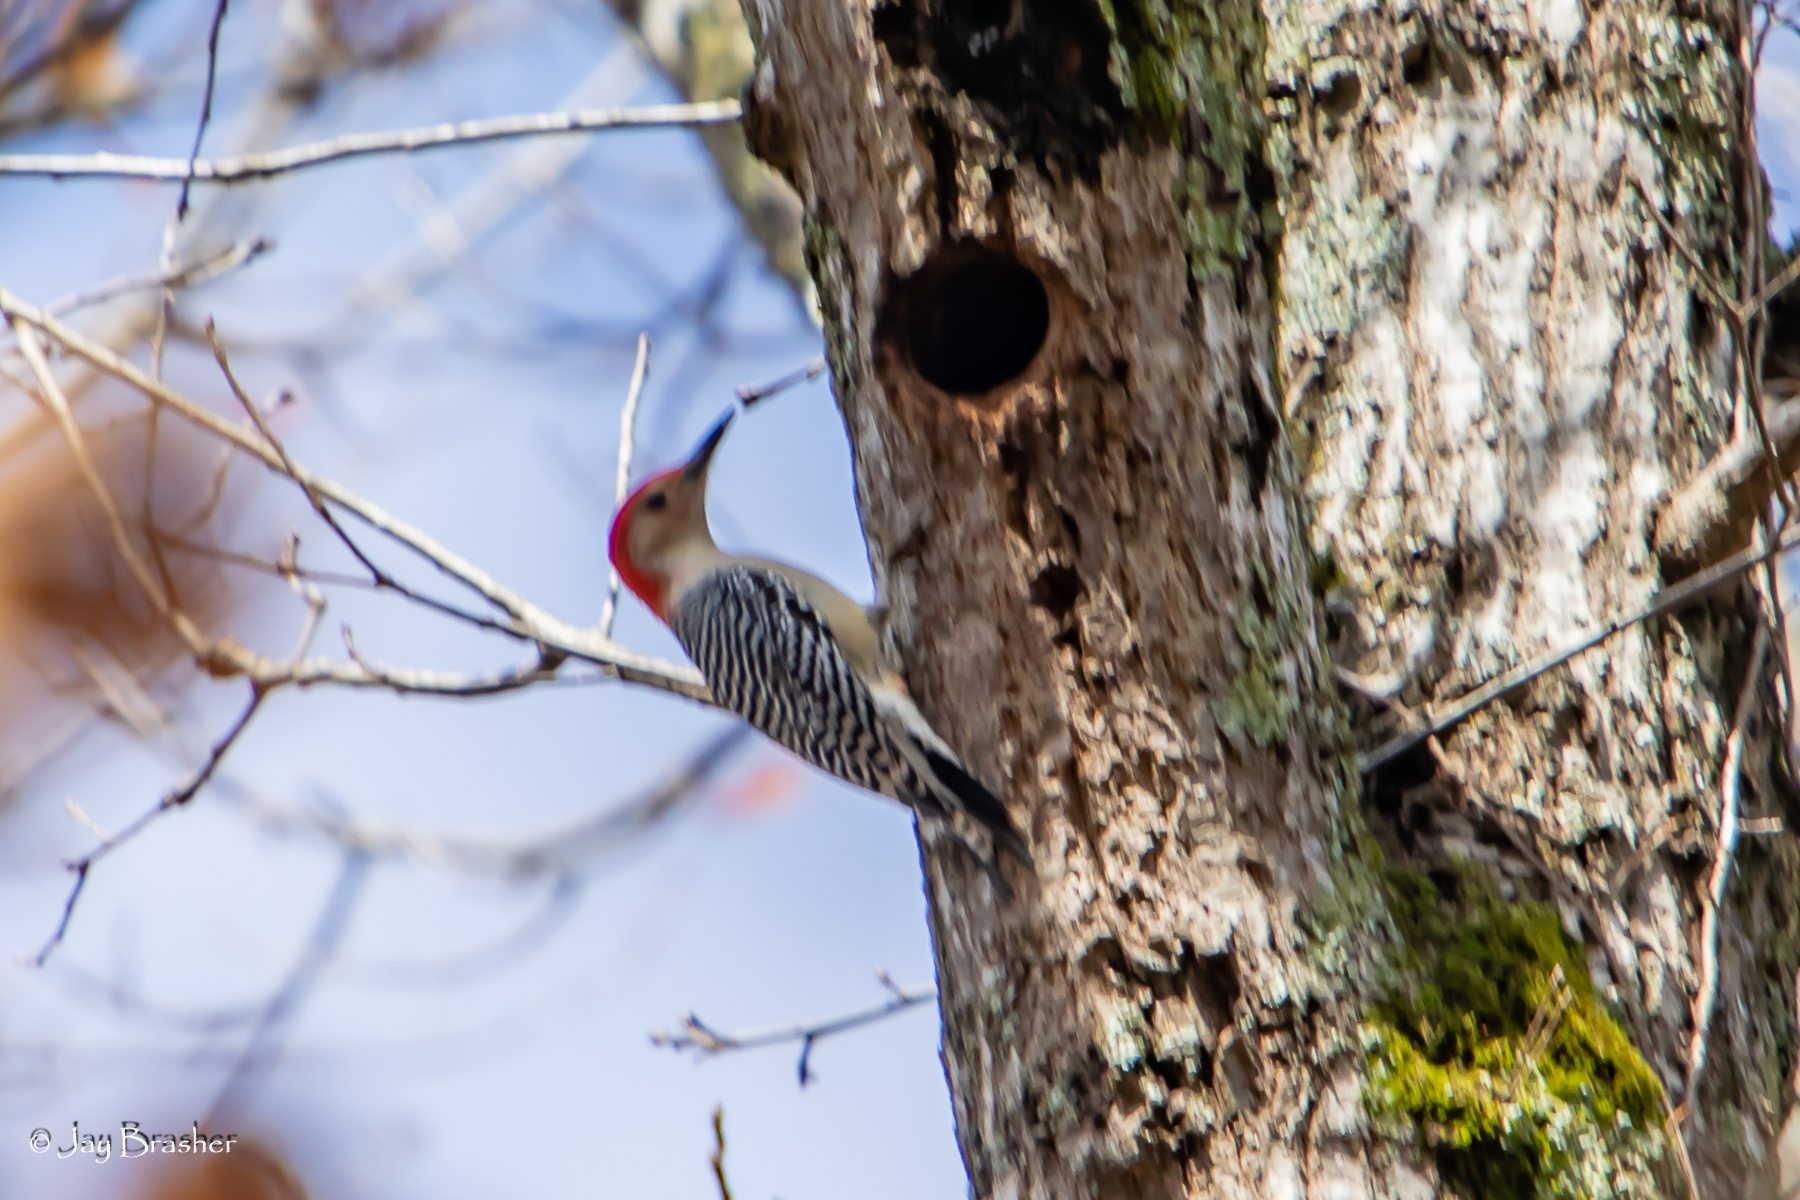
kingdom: Animalia
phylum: Chordata
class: Aves
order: Piciformes
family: Picidae
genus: Melanerpes
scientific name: Melanerpes carolinus
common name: Red-bellied woodpecker
